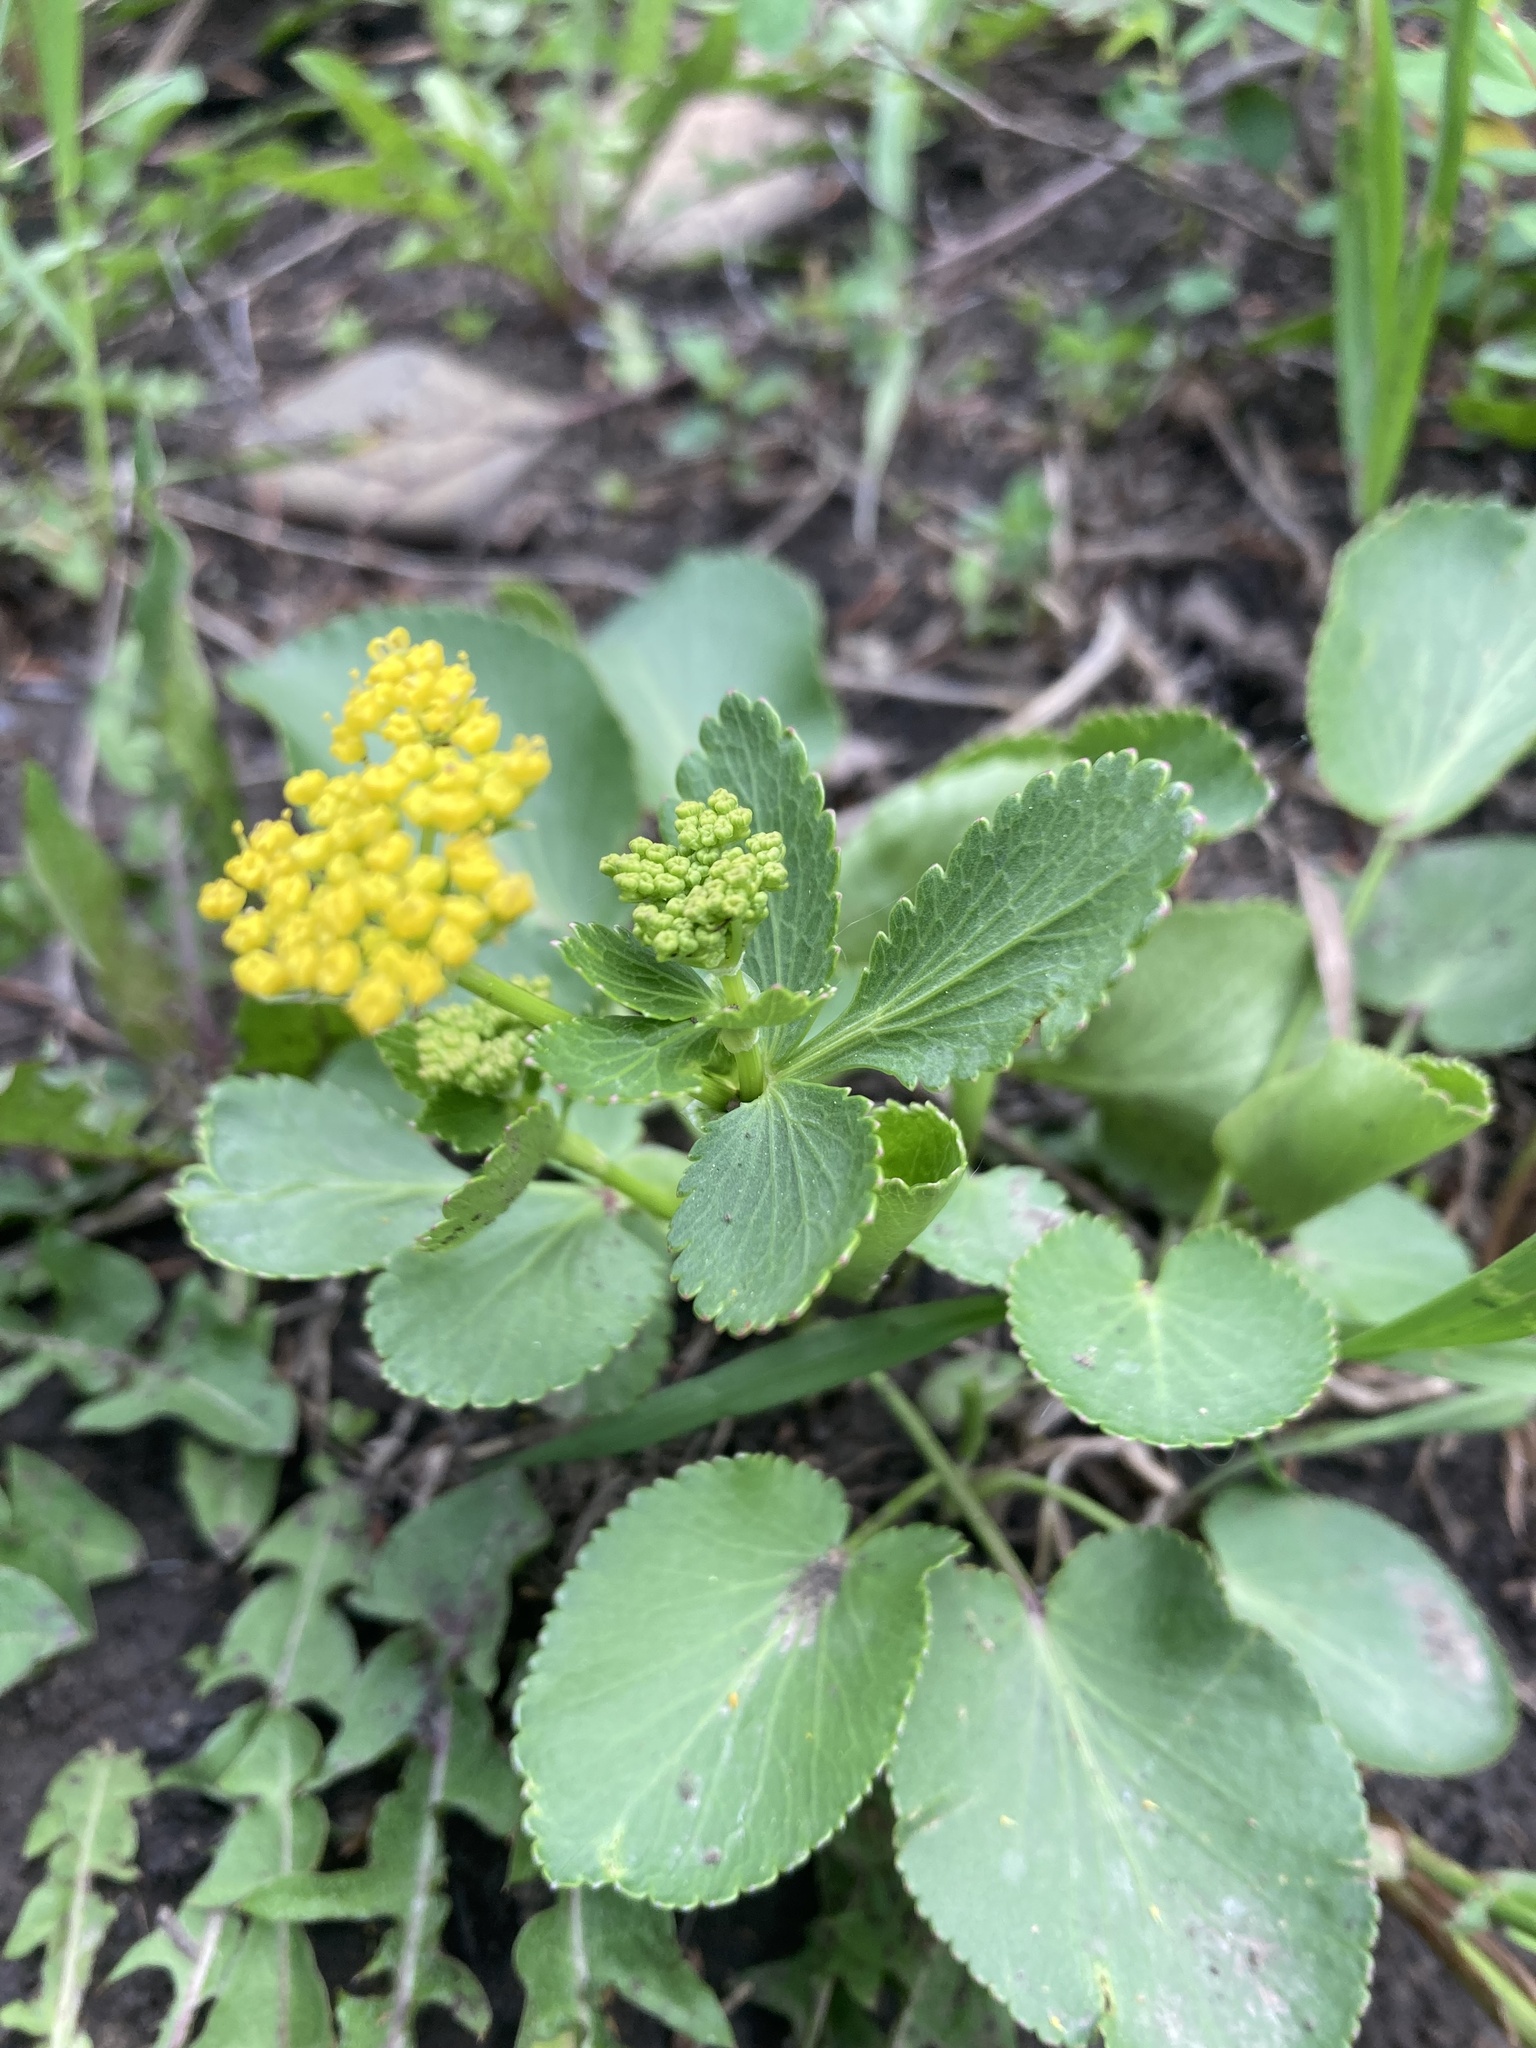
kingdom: Plantae
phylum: Tracheophyta
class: Magnoliopsida
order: Apiales
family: Apiaceae
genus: Zizia
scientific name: Zizia aptera
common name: Heart-leaved alexanders
